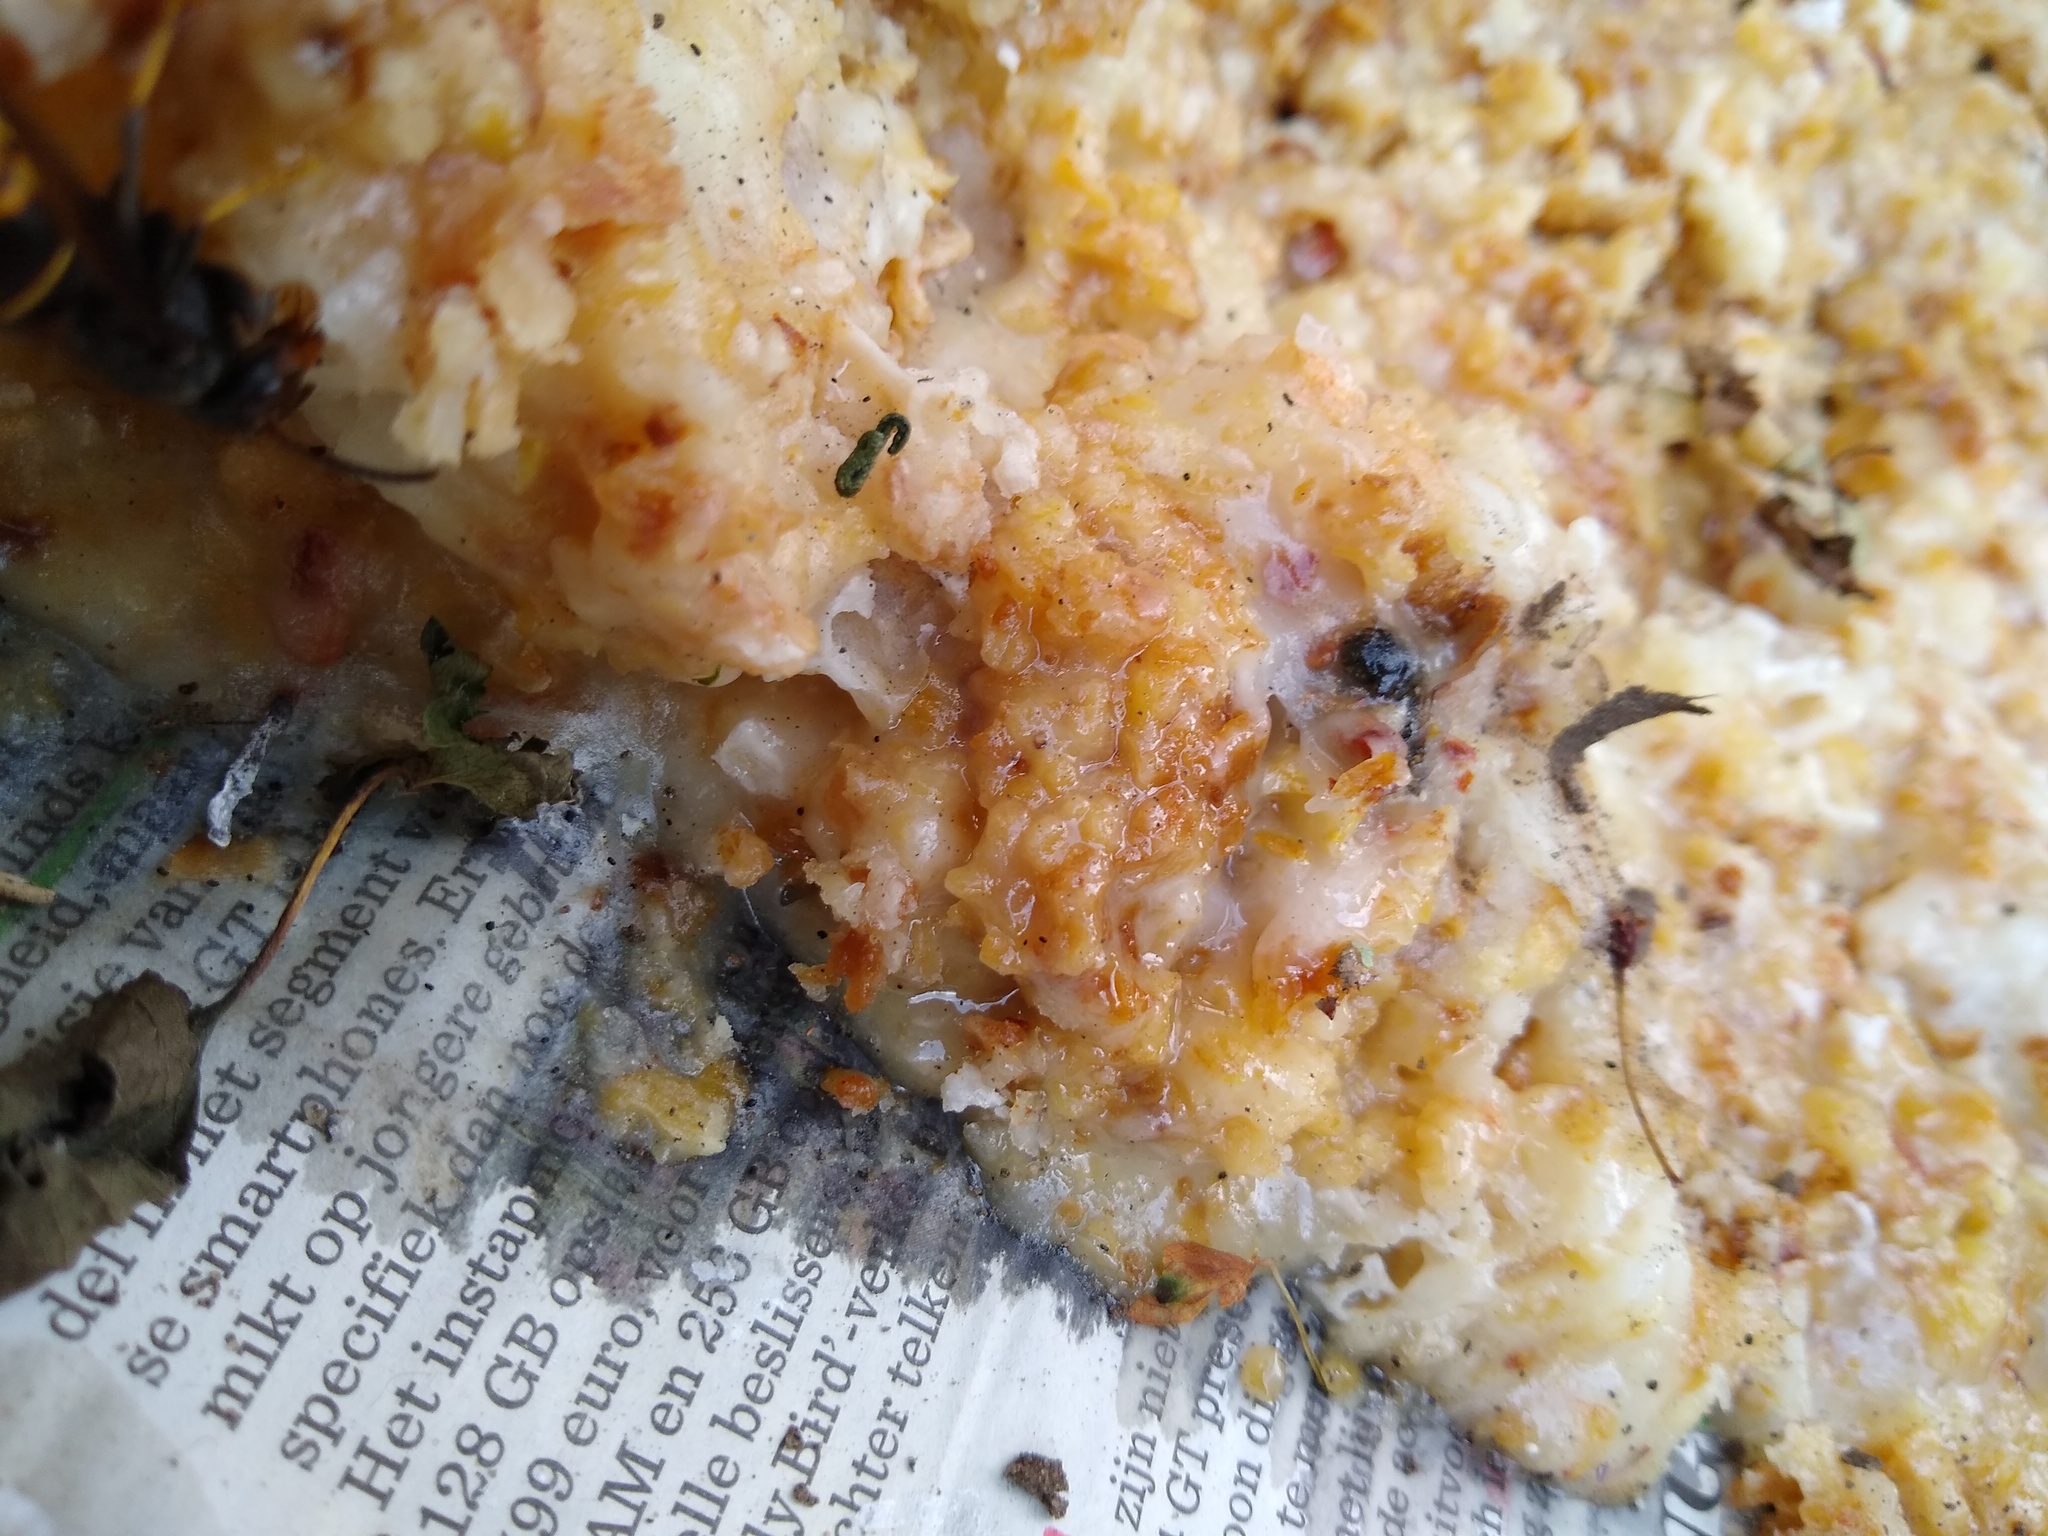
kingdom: Animalia
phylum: Arthropoda
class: Insecta
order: Hymenoptera
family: Vespidae
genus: Vespa
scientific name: Vespa velutina
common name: Asian hornet
